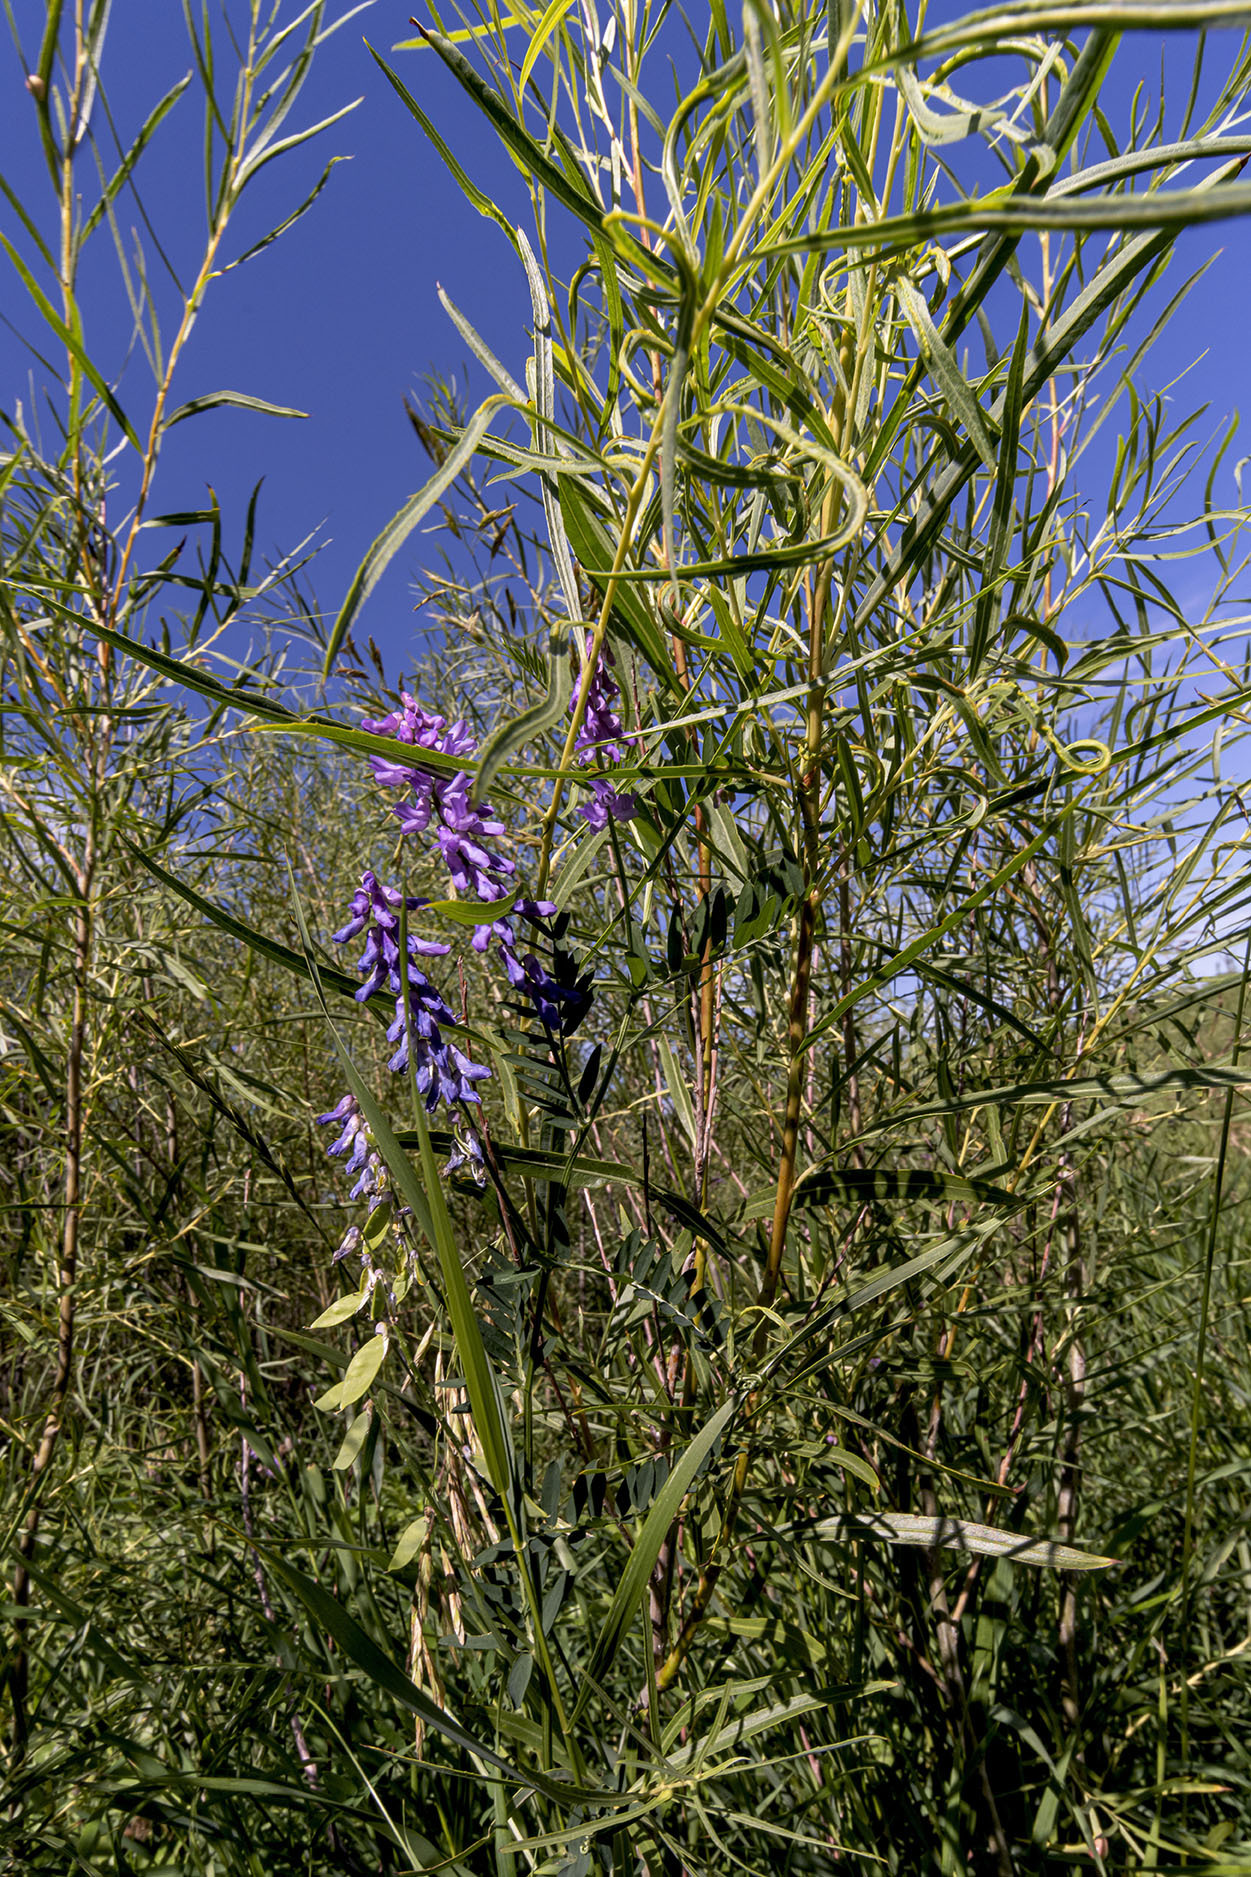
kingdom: Plantae
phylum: Tracheophyta
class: Magnoliopsida
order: Fabales
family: Fabaceae
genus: Vicia
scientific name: Vicia cracca
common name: Bird vetch
